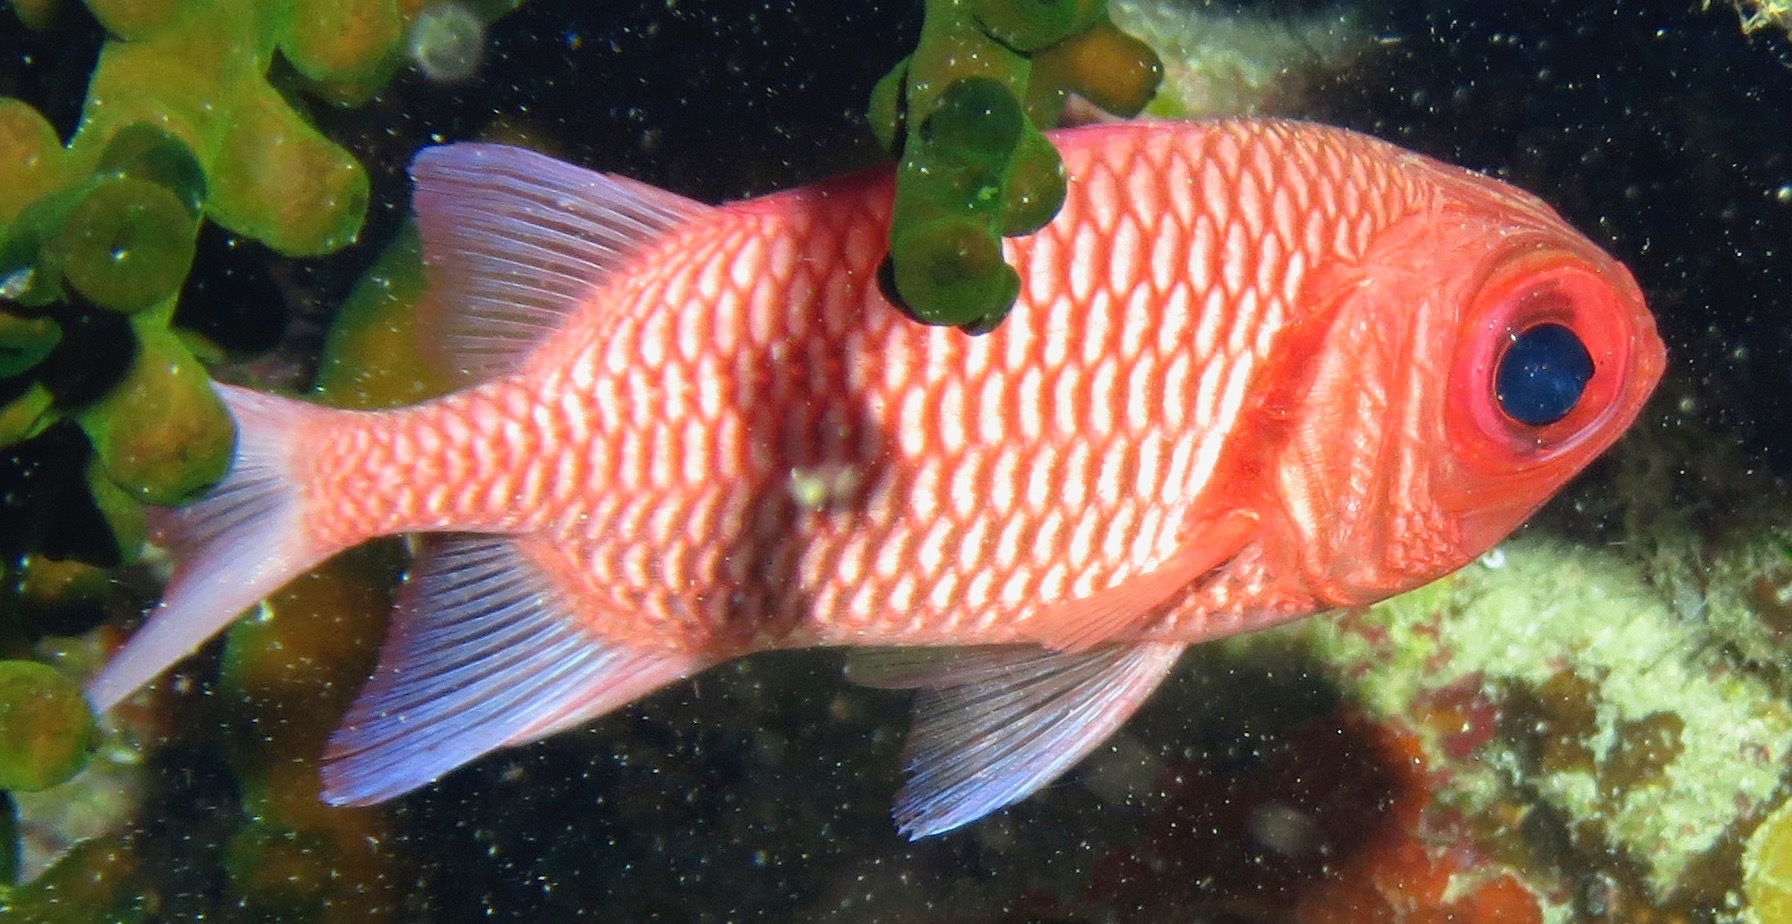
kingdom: Animalia
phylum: Chordata
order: Beryciformes
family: Holocentridae
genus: Myripristis
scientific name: Myripristis hexagona
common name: Blacktip soldierfish
